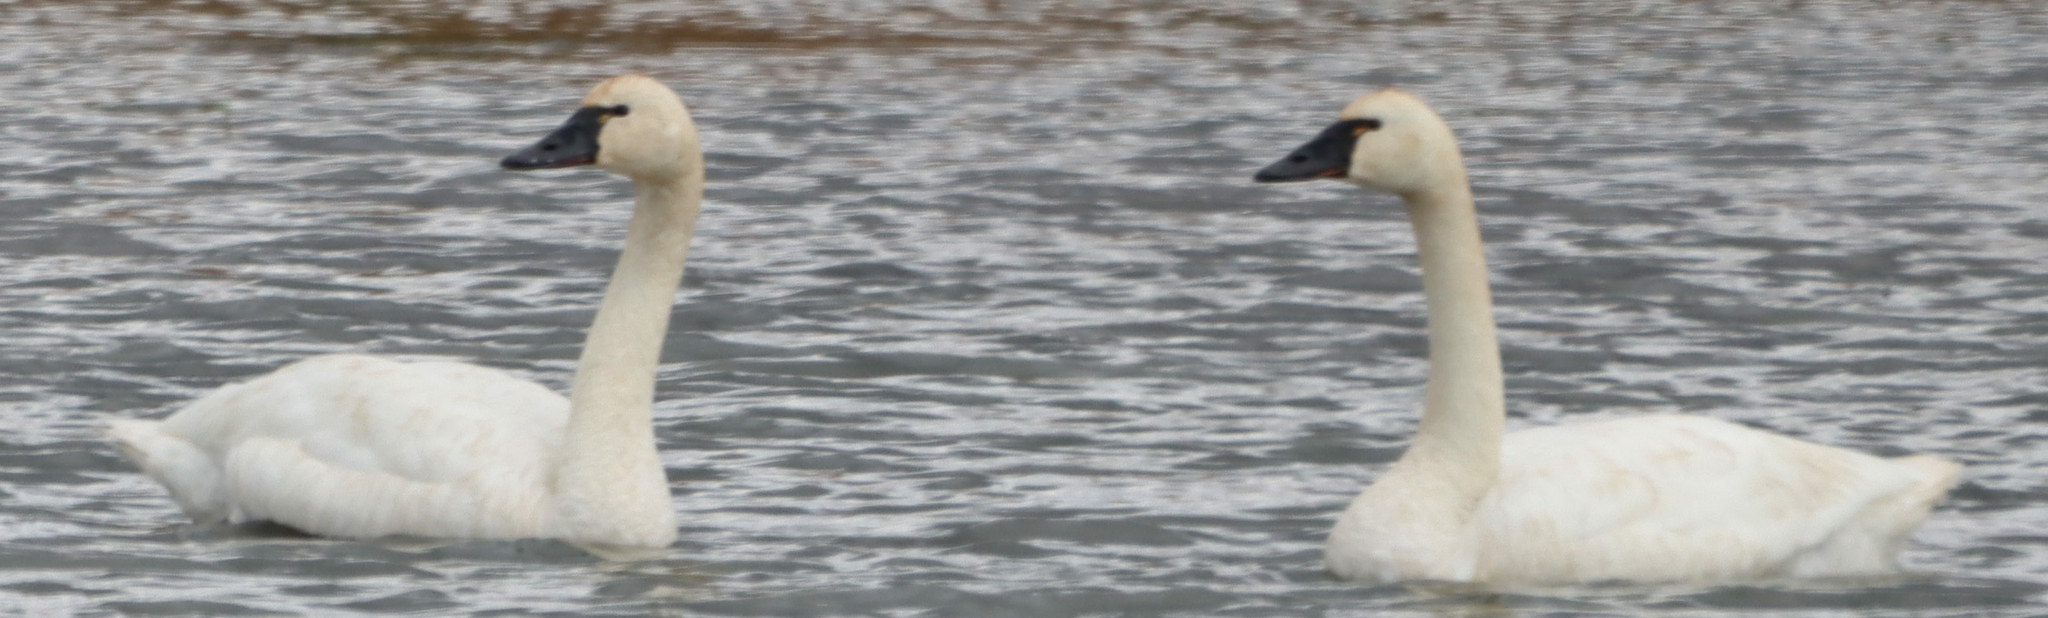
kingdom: Animalia
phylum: Chordata
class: Aves
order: Anseriformes
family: Anatidae
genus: Cygnus
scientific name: Cygnus columbianus
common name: Tundra swan
